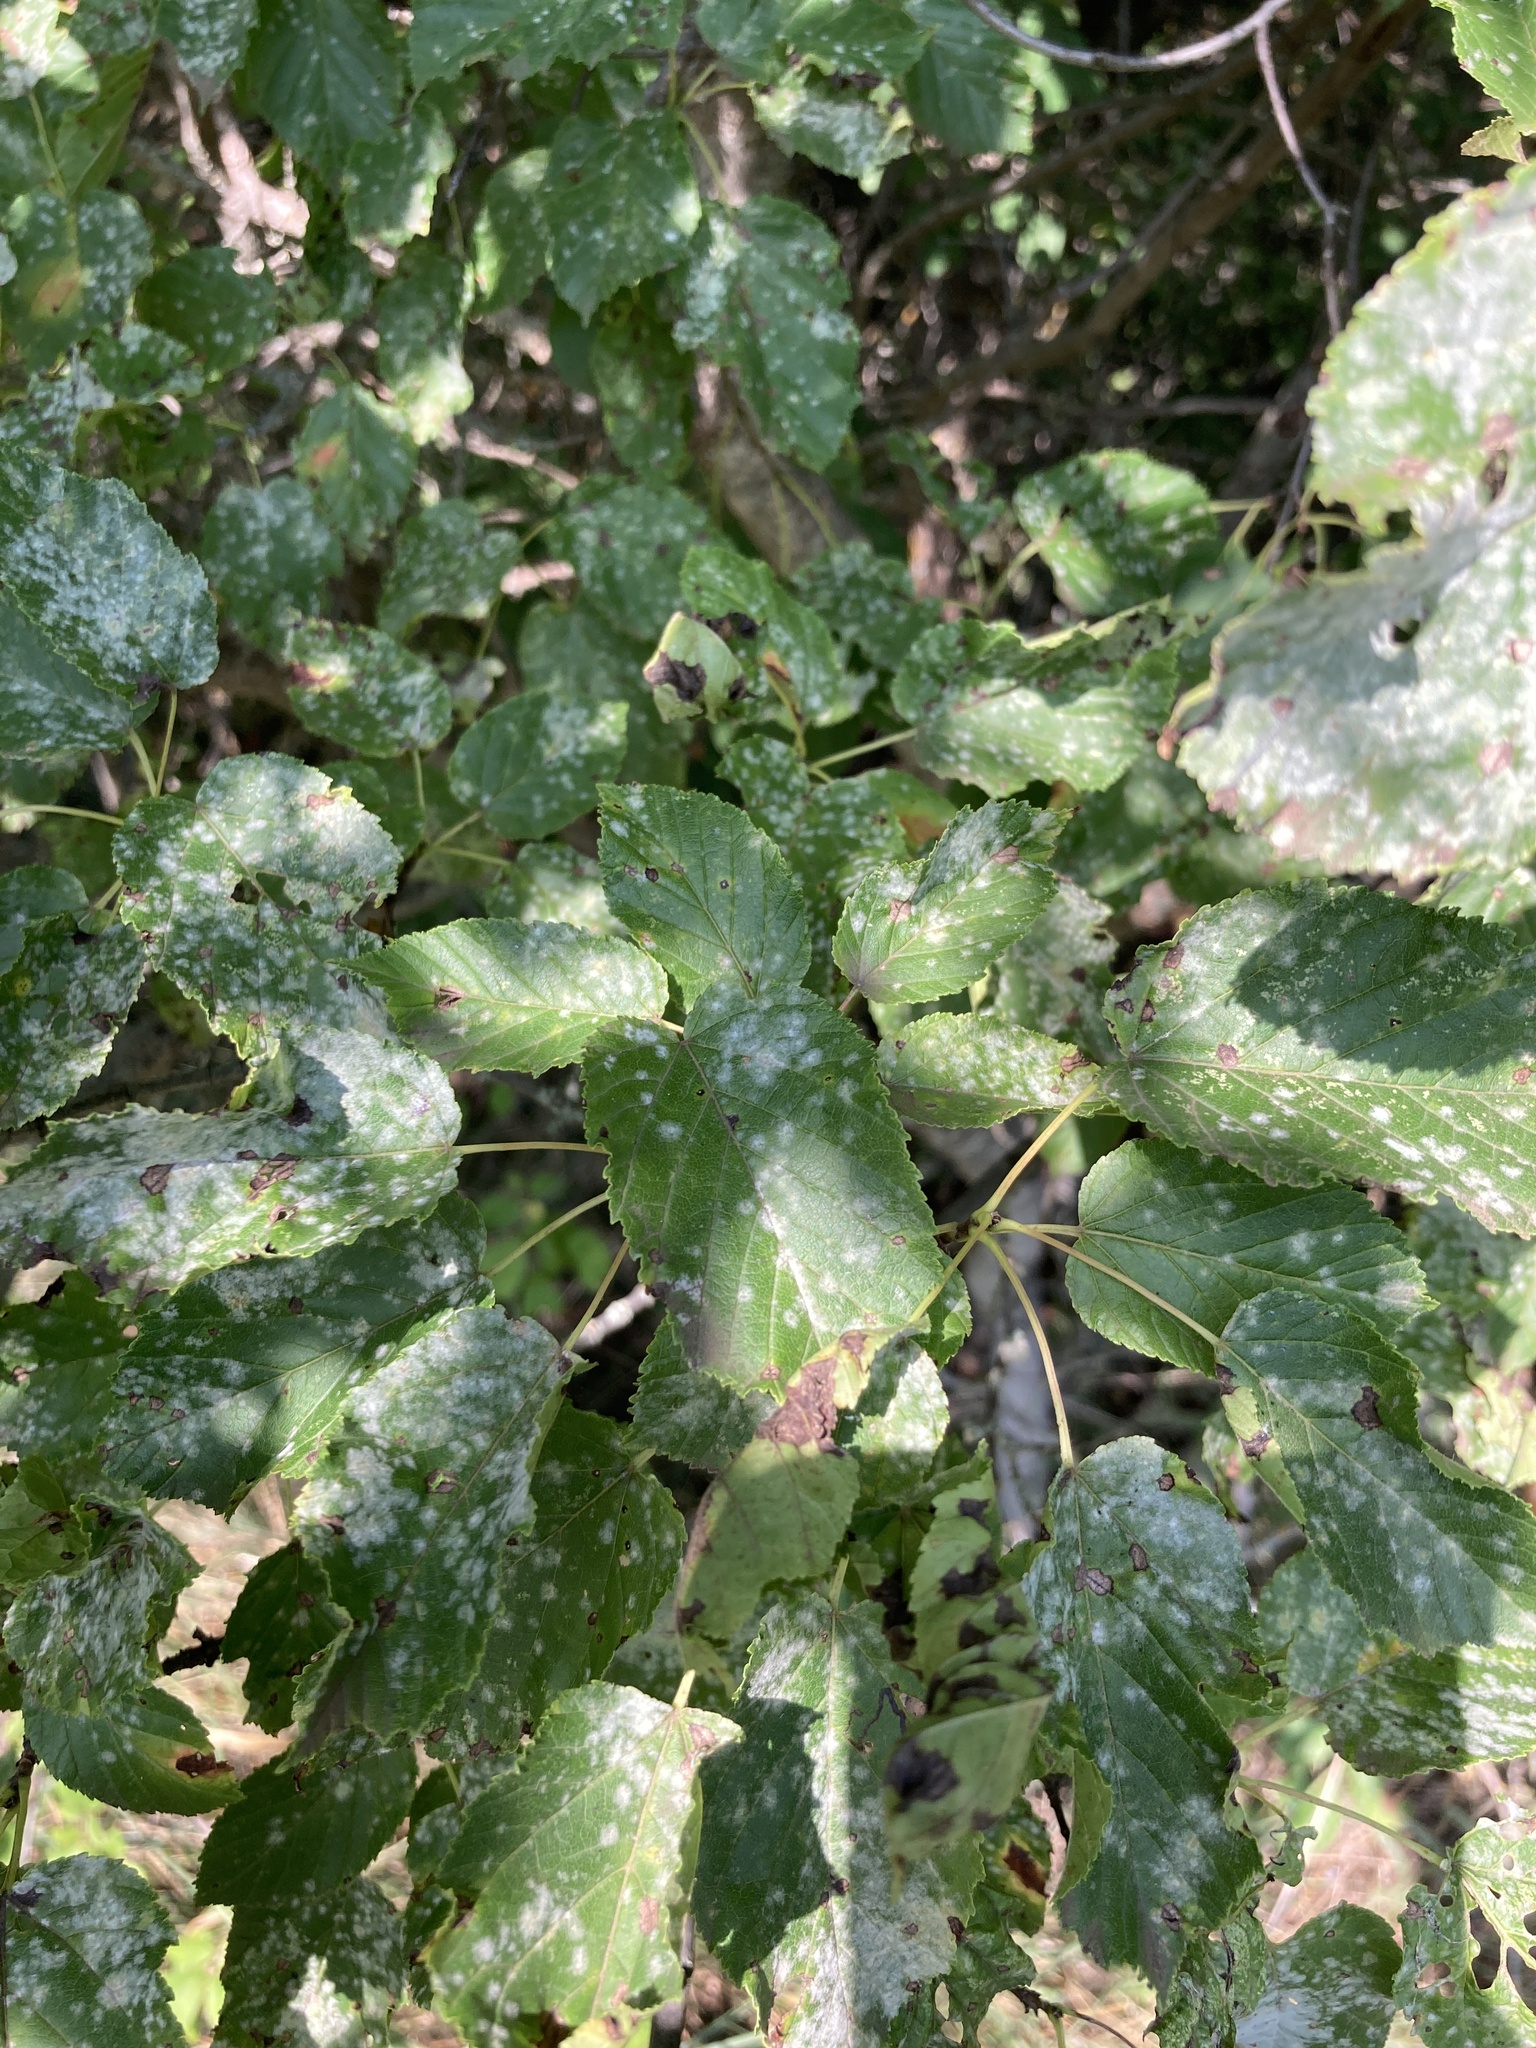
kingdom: Plantae
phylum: Tracheophyta
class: Magnoliopsida
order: Sapindales
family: Sapindaceae
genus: Acer
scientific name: Acer tataricum
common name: Tartar maple
